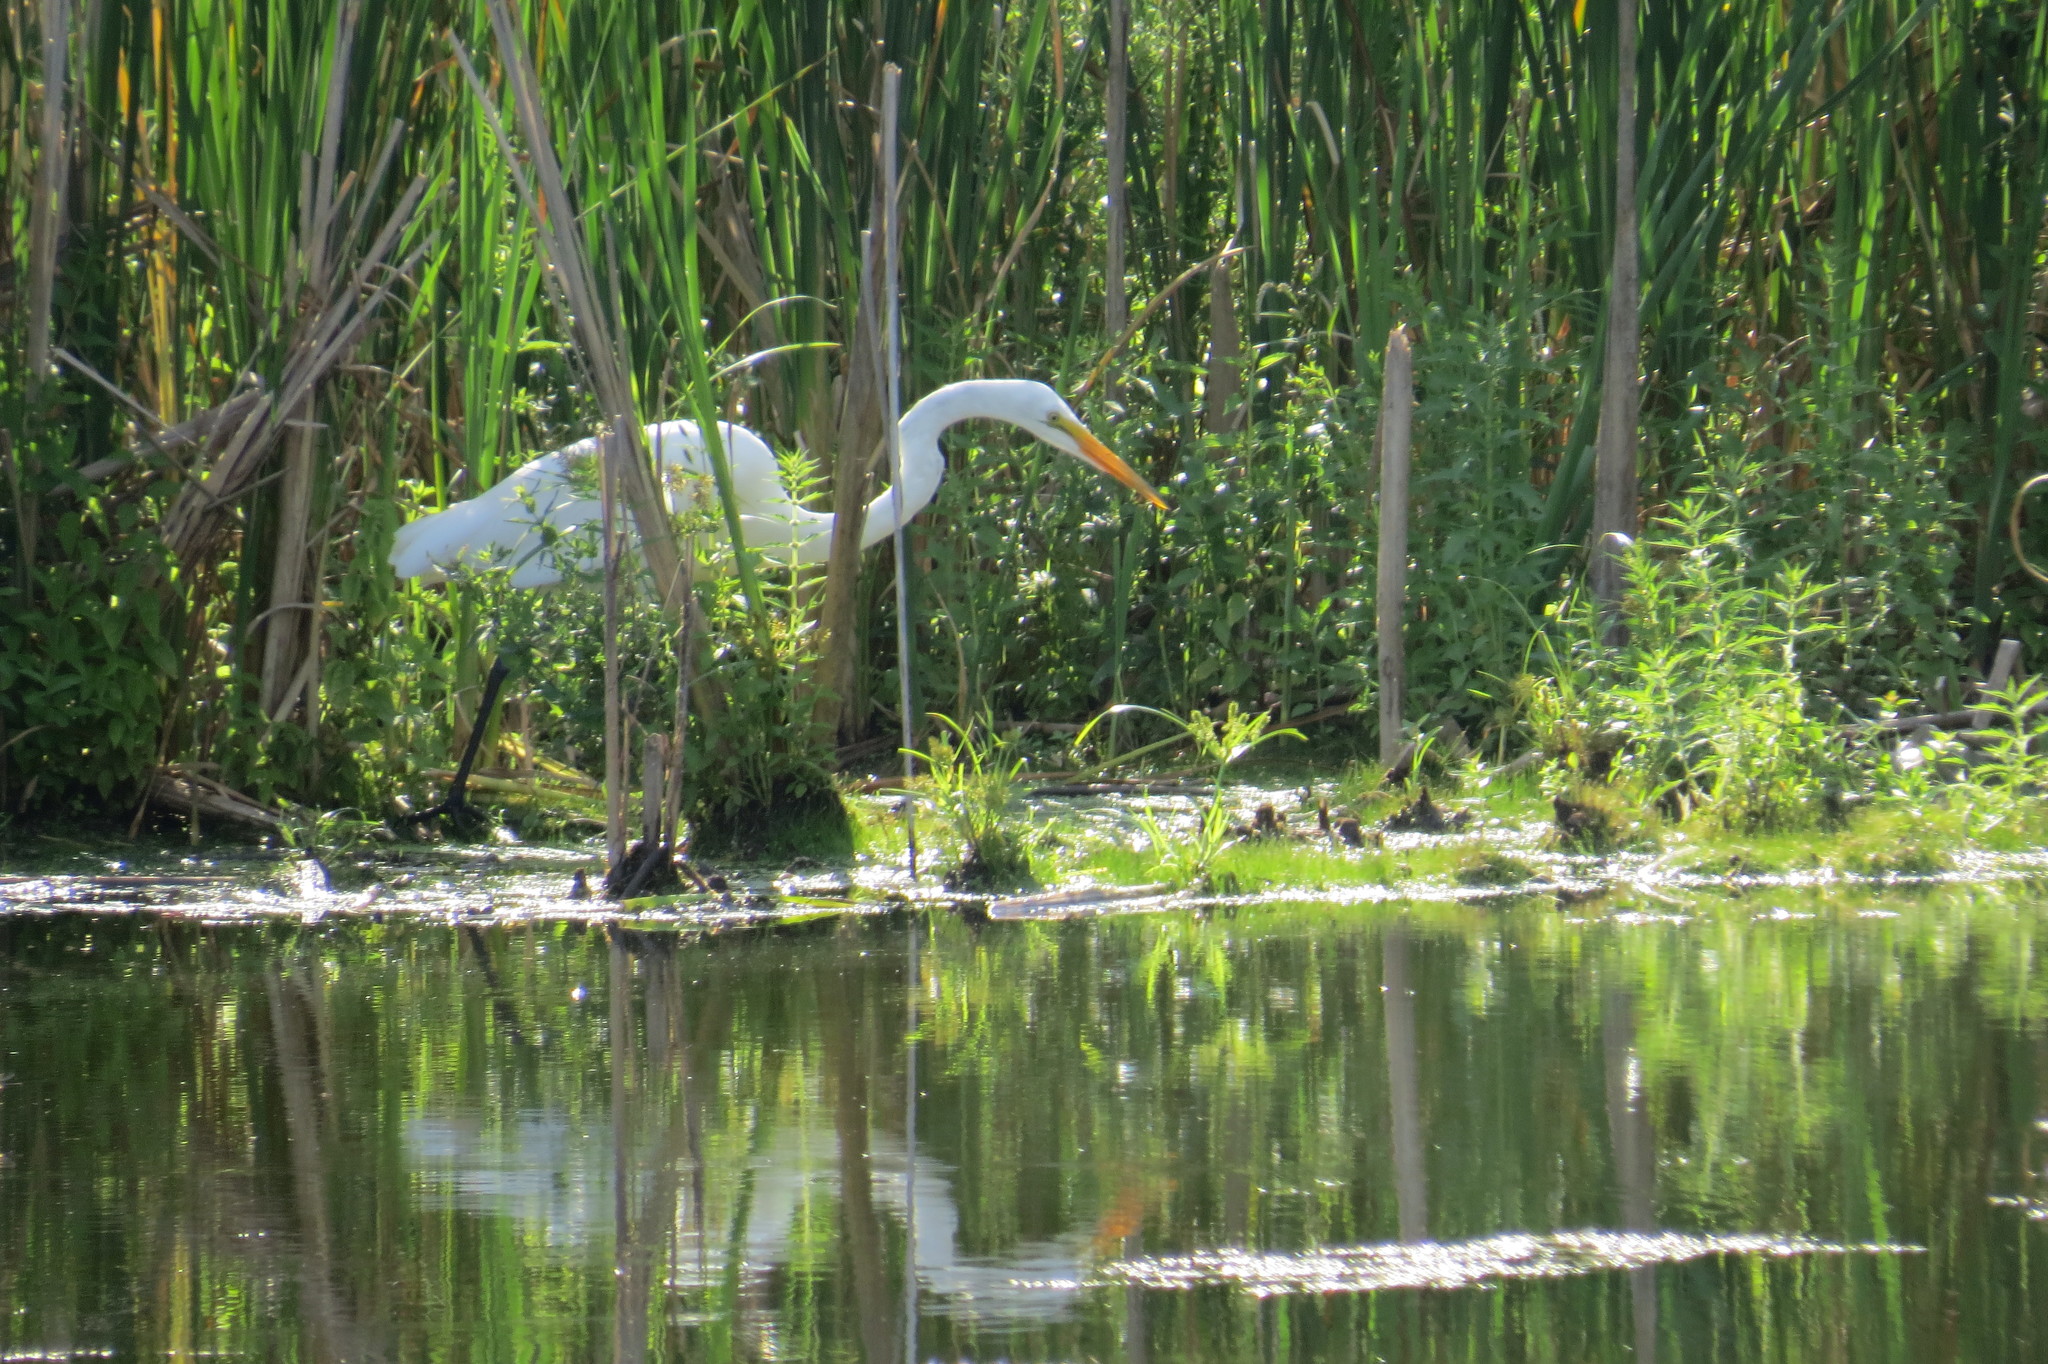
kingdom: Animalia
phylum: Chordata
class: Aves
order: Pelecaniformes
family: Ardeidae
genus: Ardea
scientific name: Ardea alba
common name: Great egret
